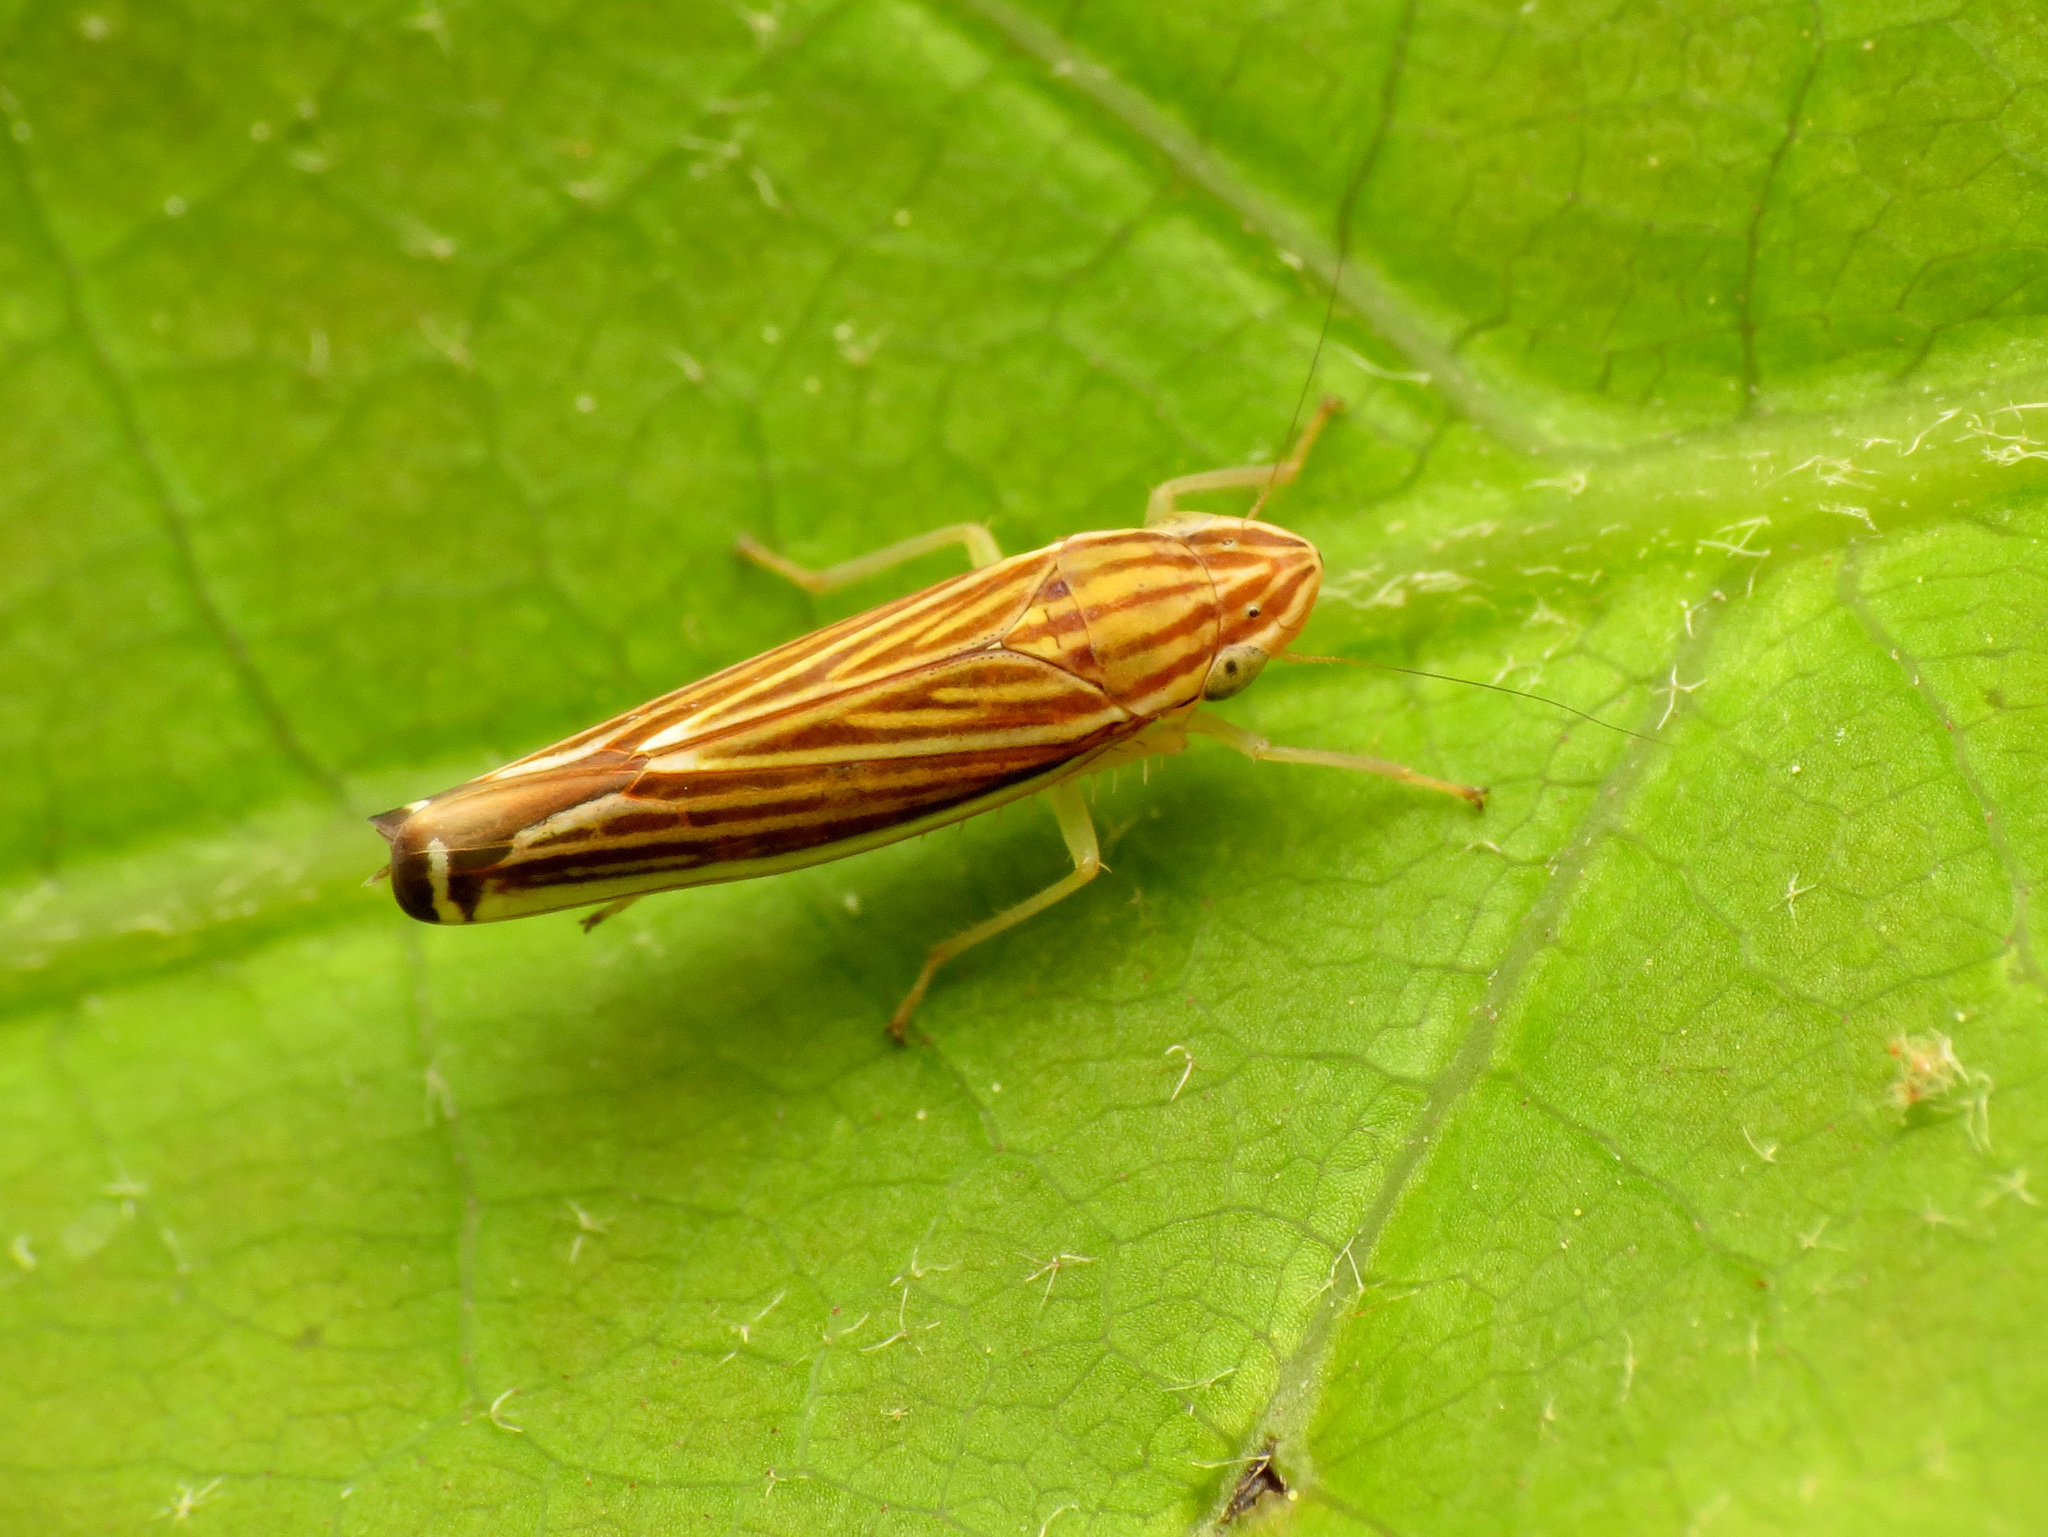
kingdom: Animalia
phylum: Arthropoda
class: Insecta
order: Hemiptera
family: Cicadellidae
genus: Sibovia
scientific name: Sibovia occatoria
